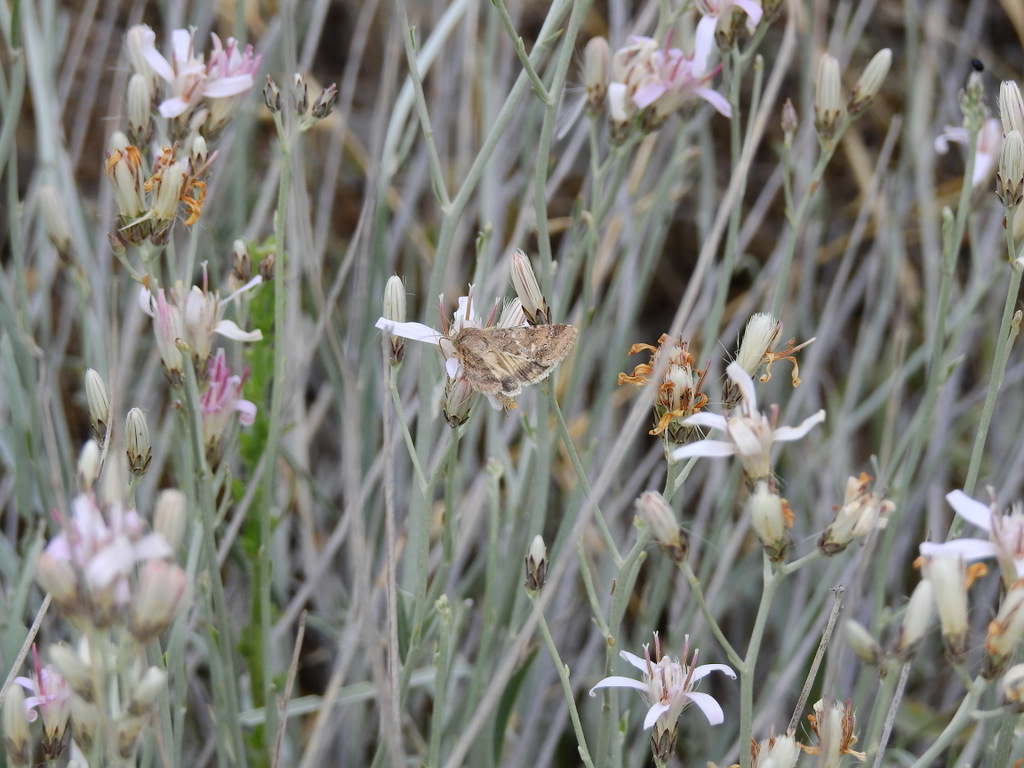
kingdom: Plantae
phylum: Tracheophyta
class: Magnoliopsida
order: Asterales
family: Asteraceae
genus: Hyalis
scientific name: Hyalis argentea
